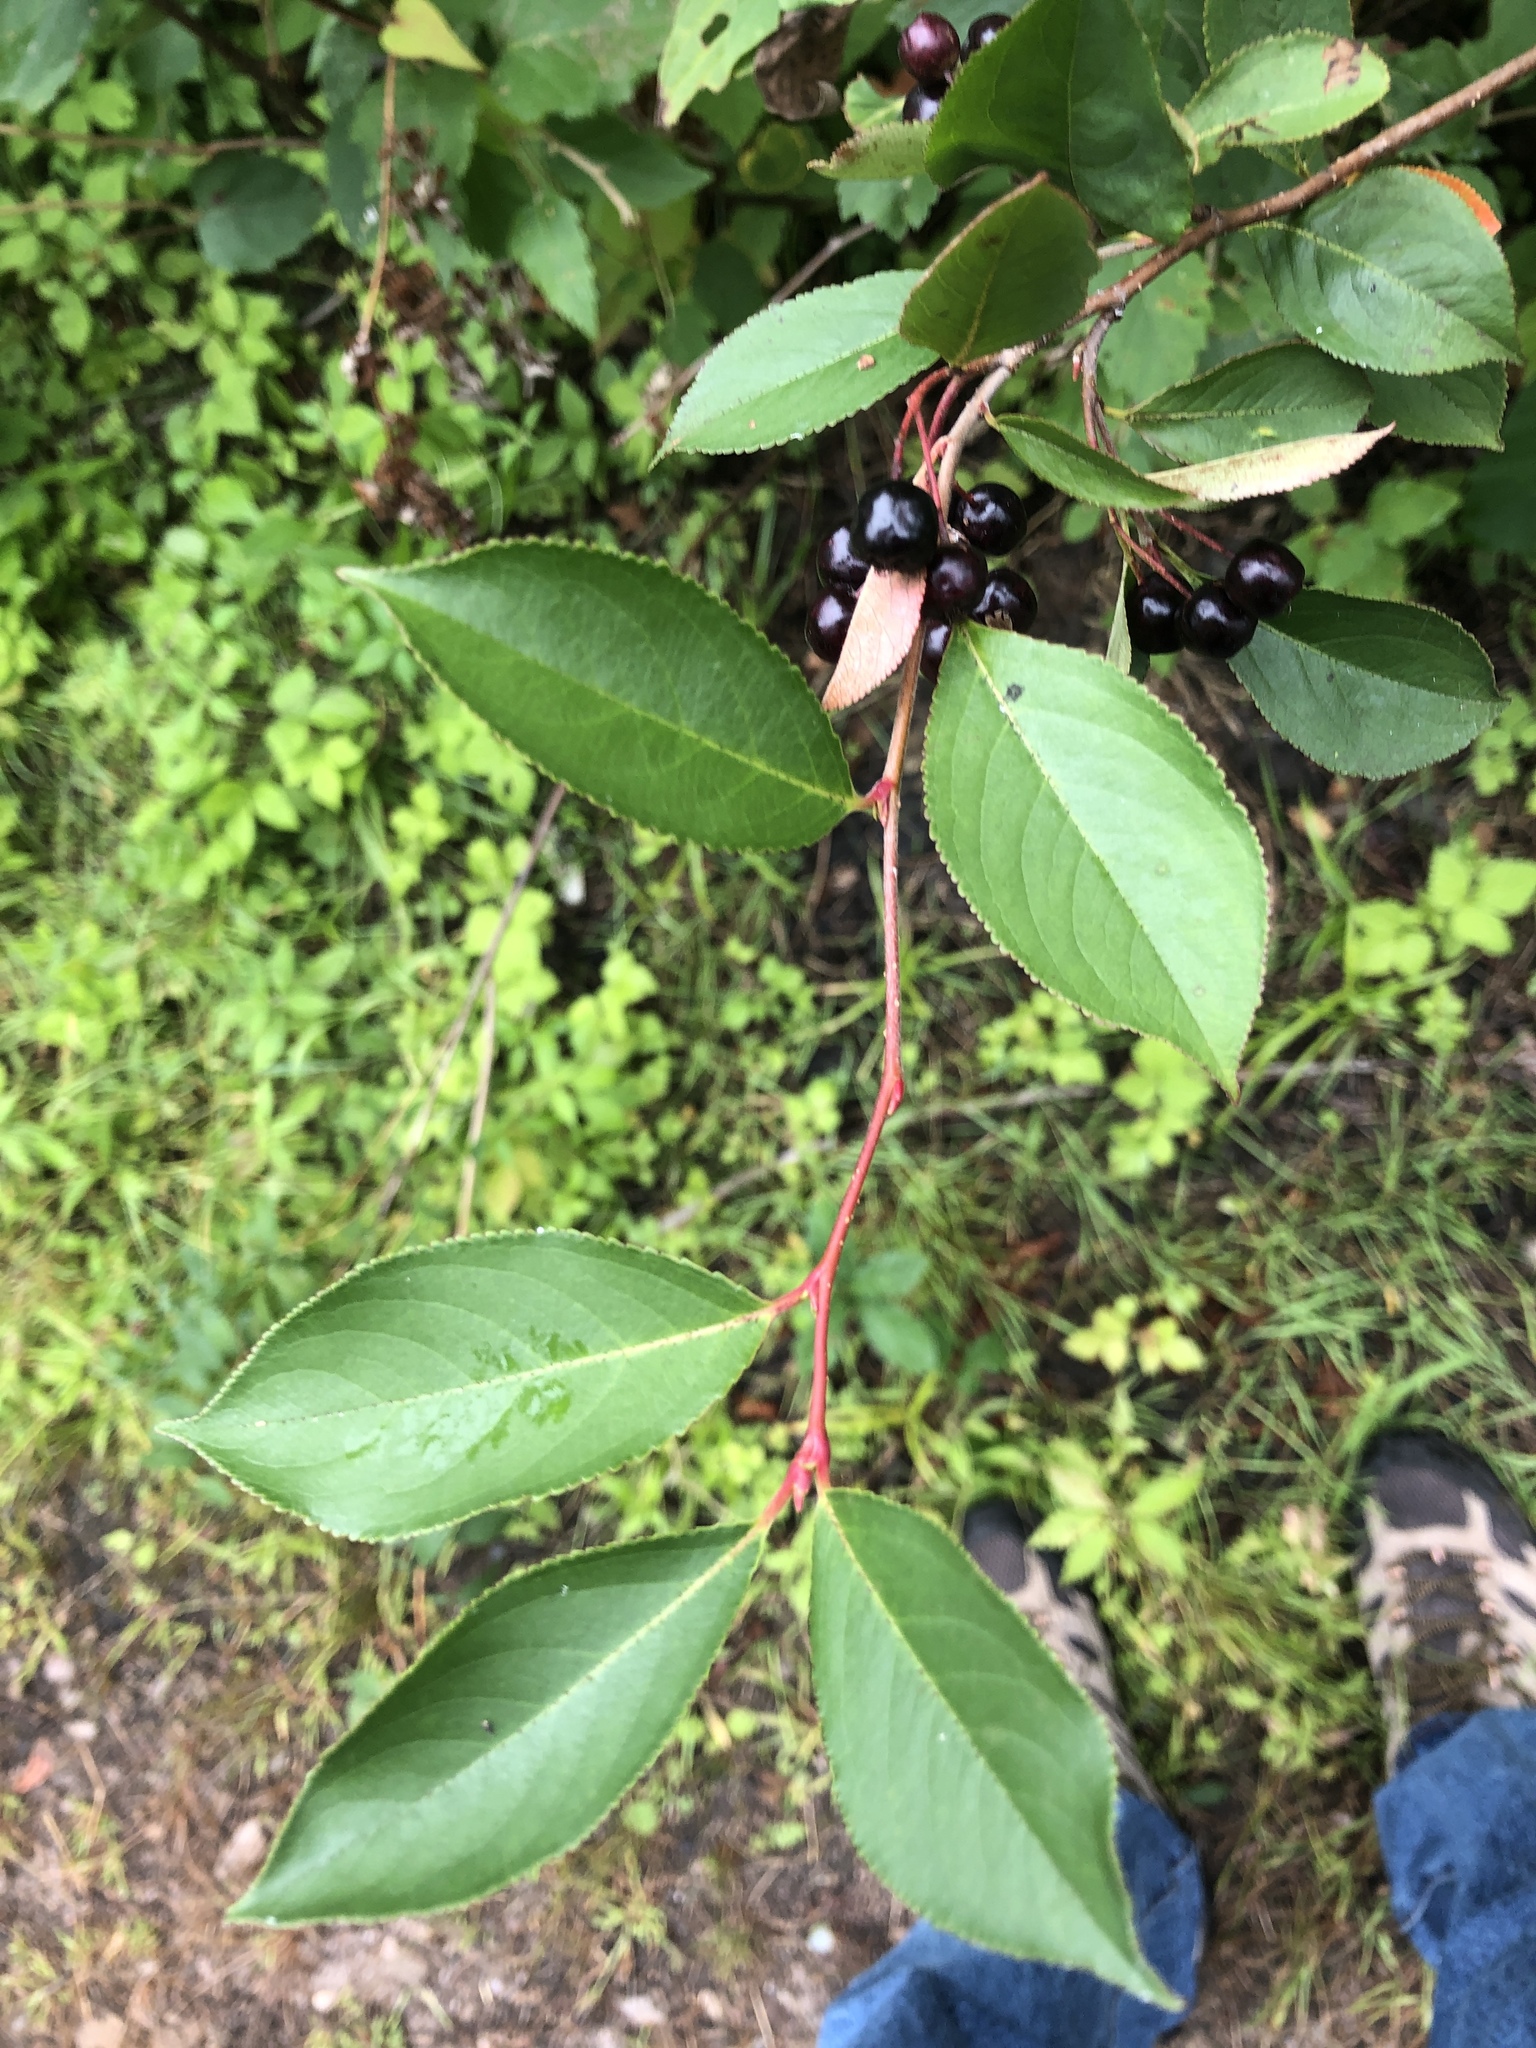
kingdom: Plantae
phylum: Tracheophyta
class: Magnoliopsida
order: Rosales
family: Rosaceae
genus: Aronia
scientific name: Aronia melanocarpa
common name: Black chokeberry
